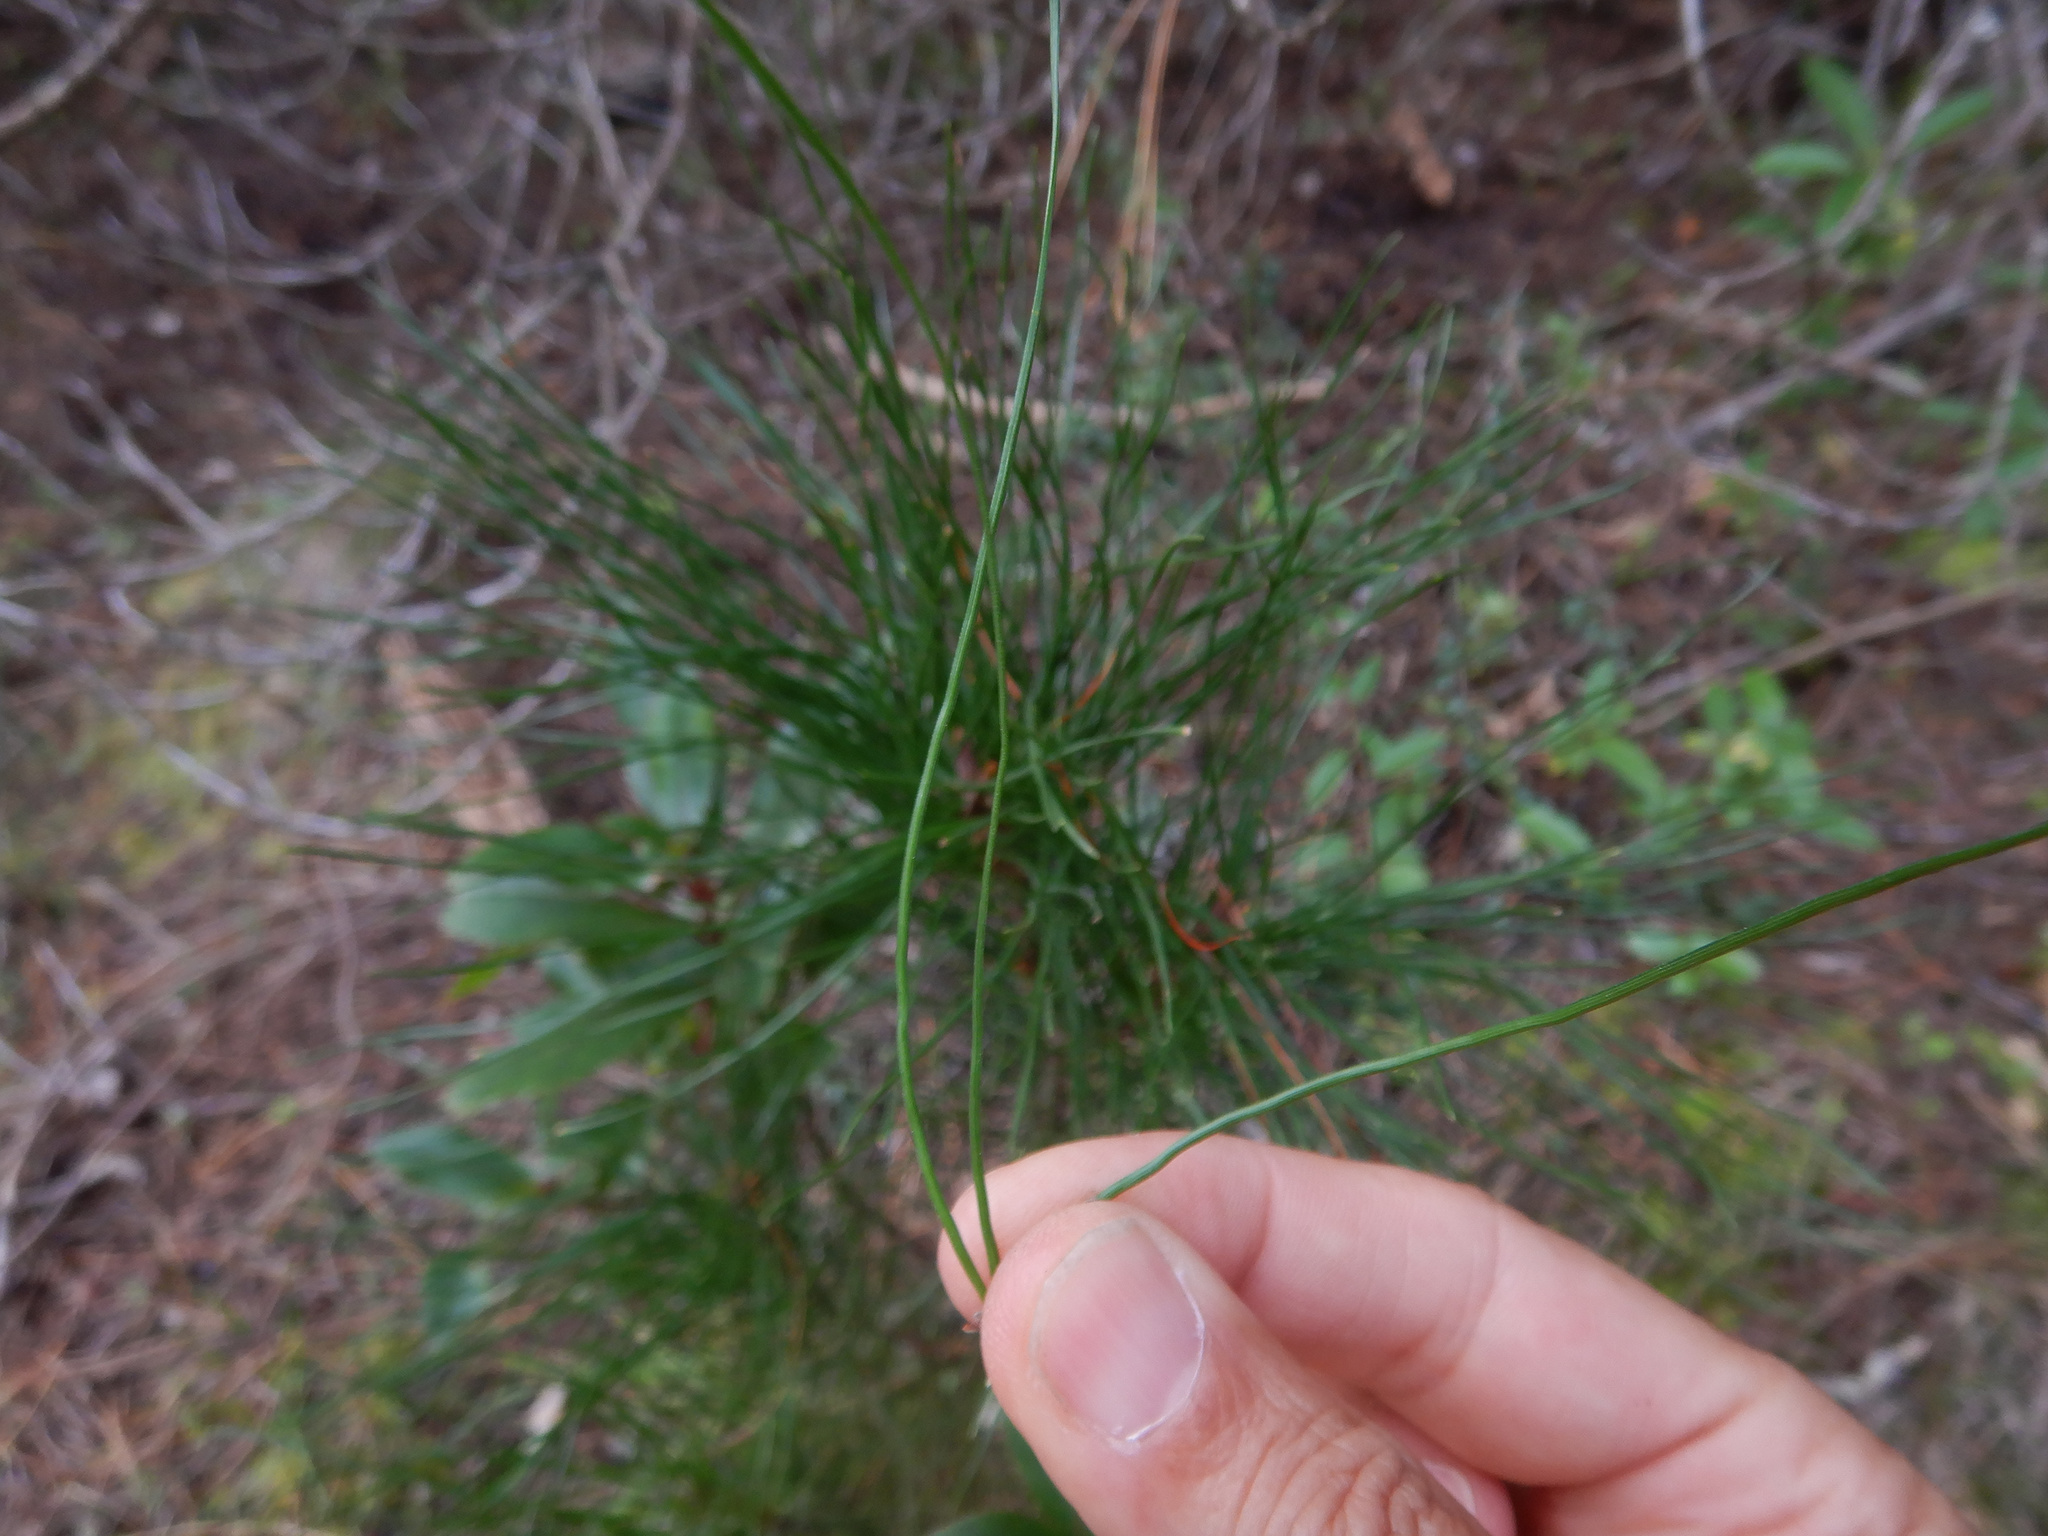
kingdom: Plantae
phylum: Tracheophyta
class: Pinopsida
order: Pinales
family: Pinaceae
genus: Pinus
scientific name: Pinus radiata
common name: Monterey pine
